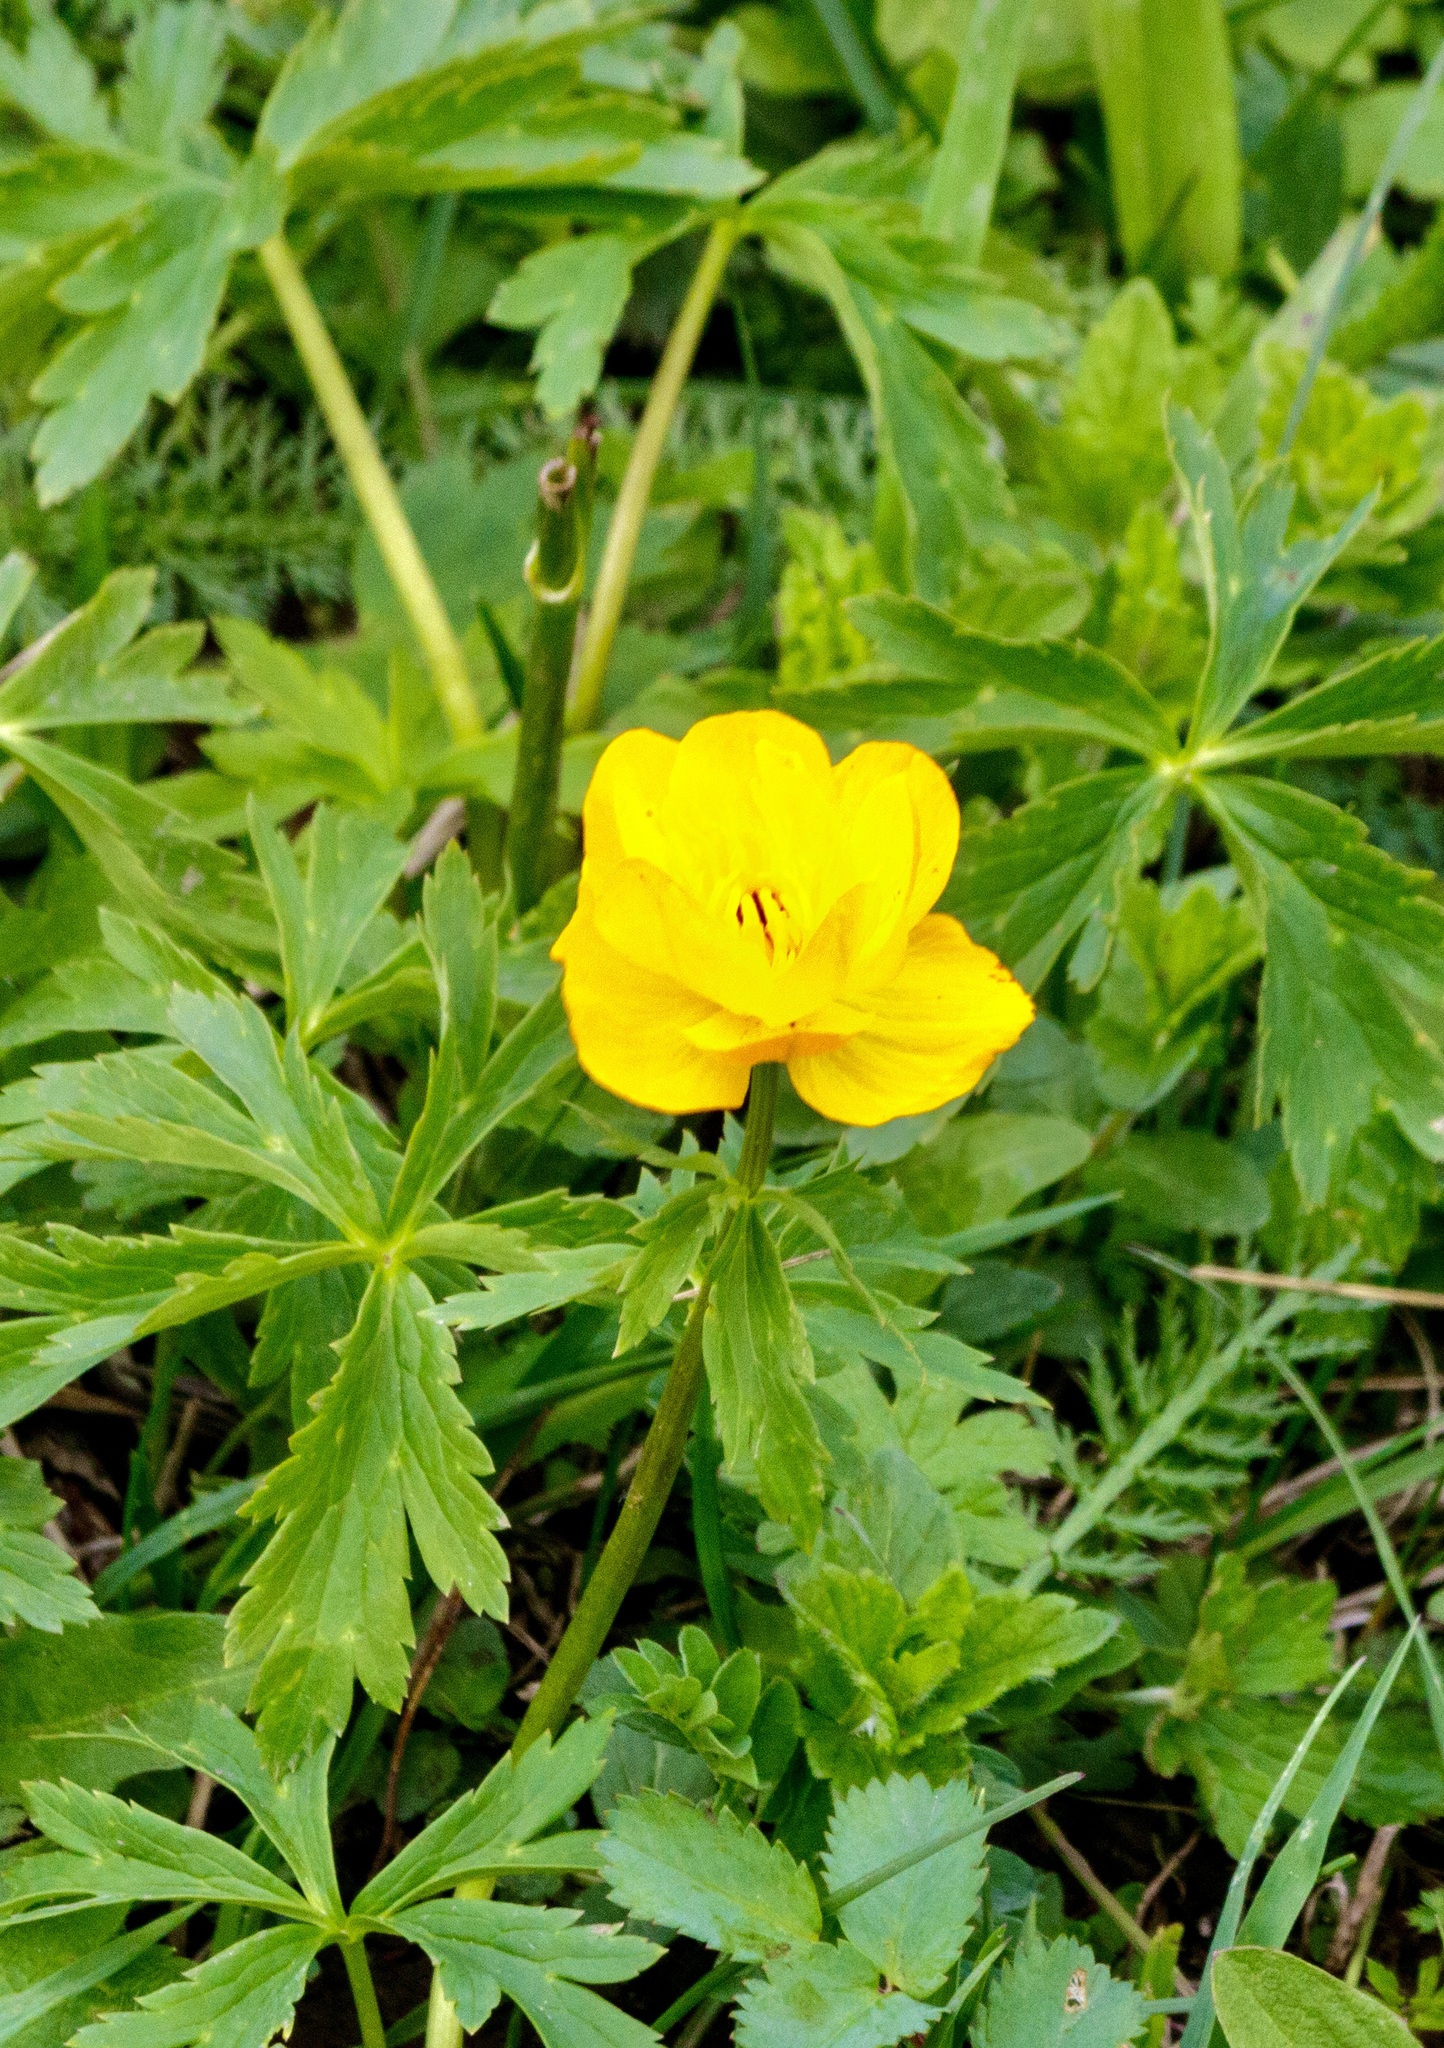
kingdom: Plantae
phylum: Tracheophyta
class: Magnoliopsida
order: Ranunculales
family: Ranunculaceae
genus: Trollius
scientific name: Trollius dschungaricus
